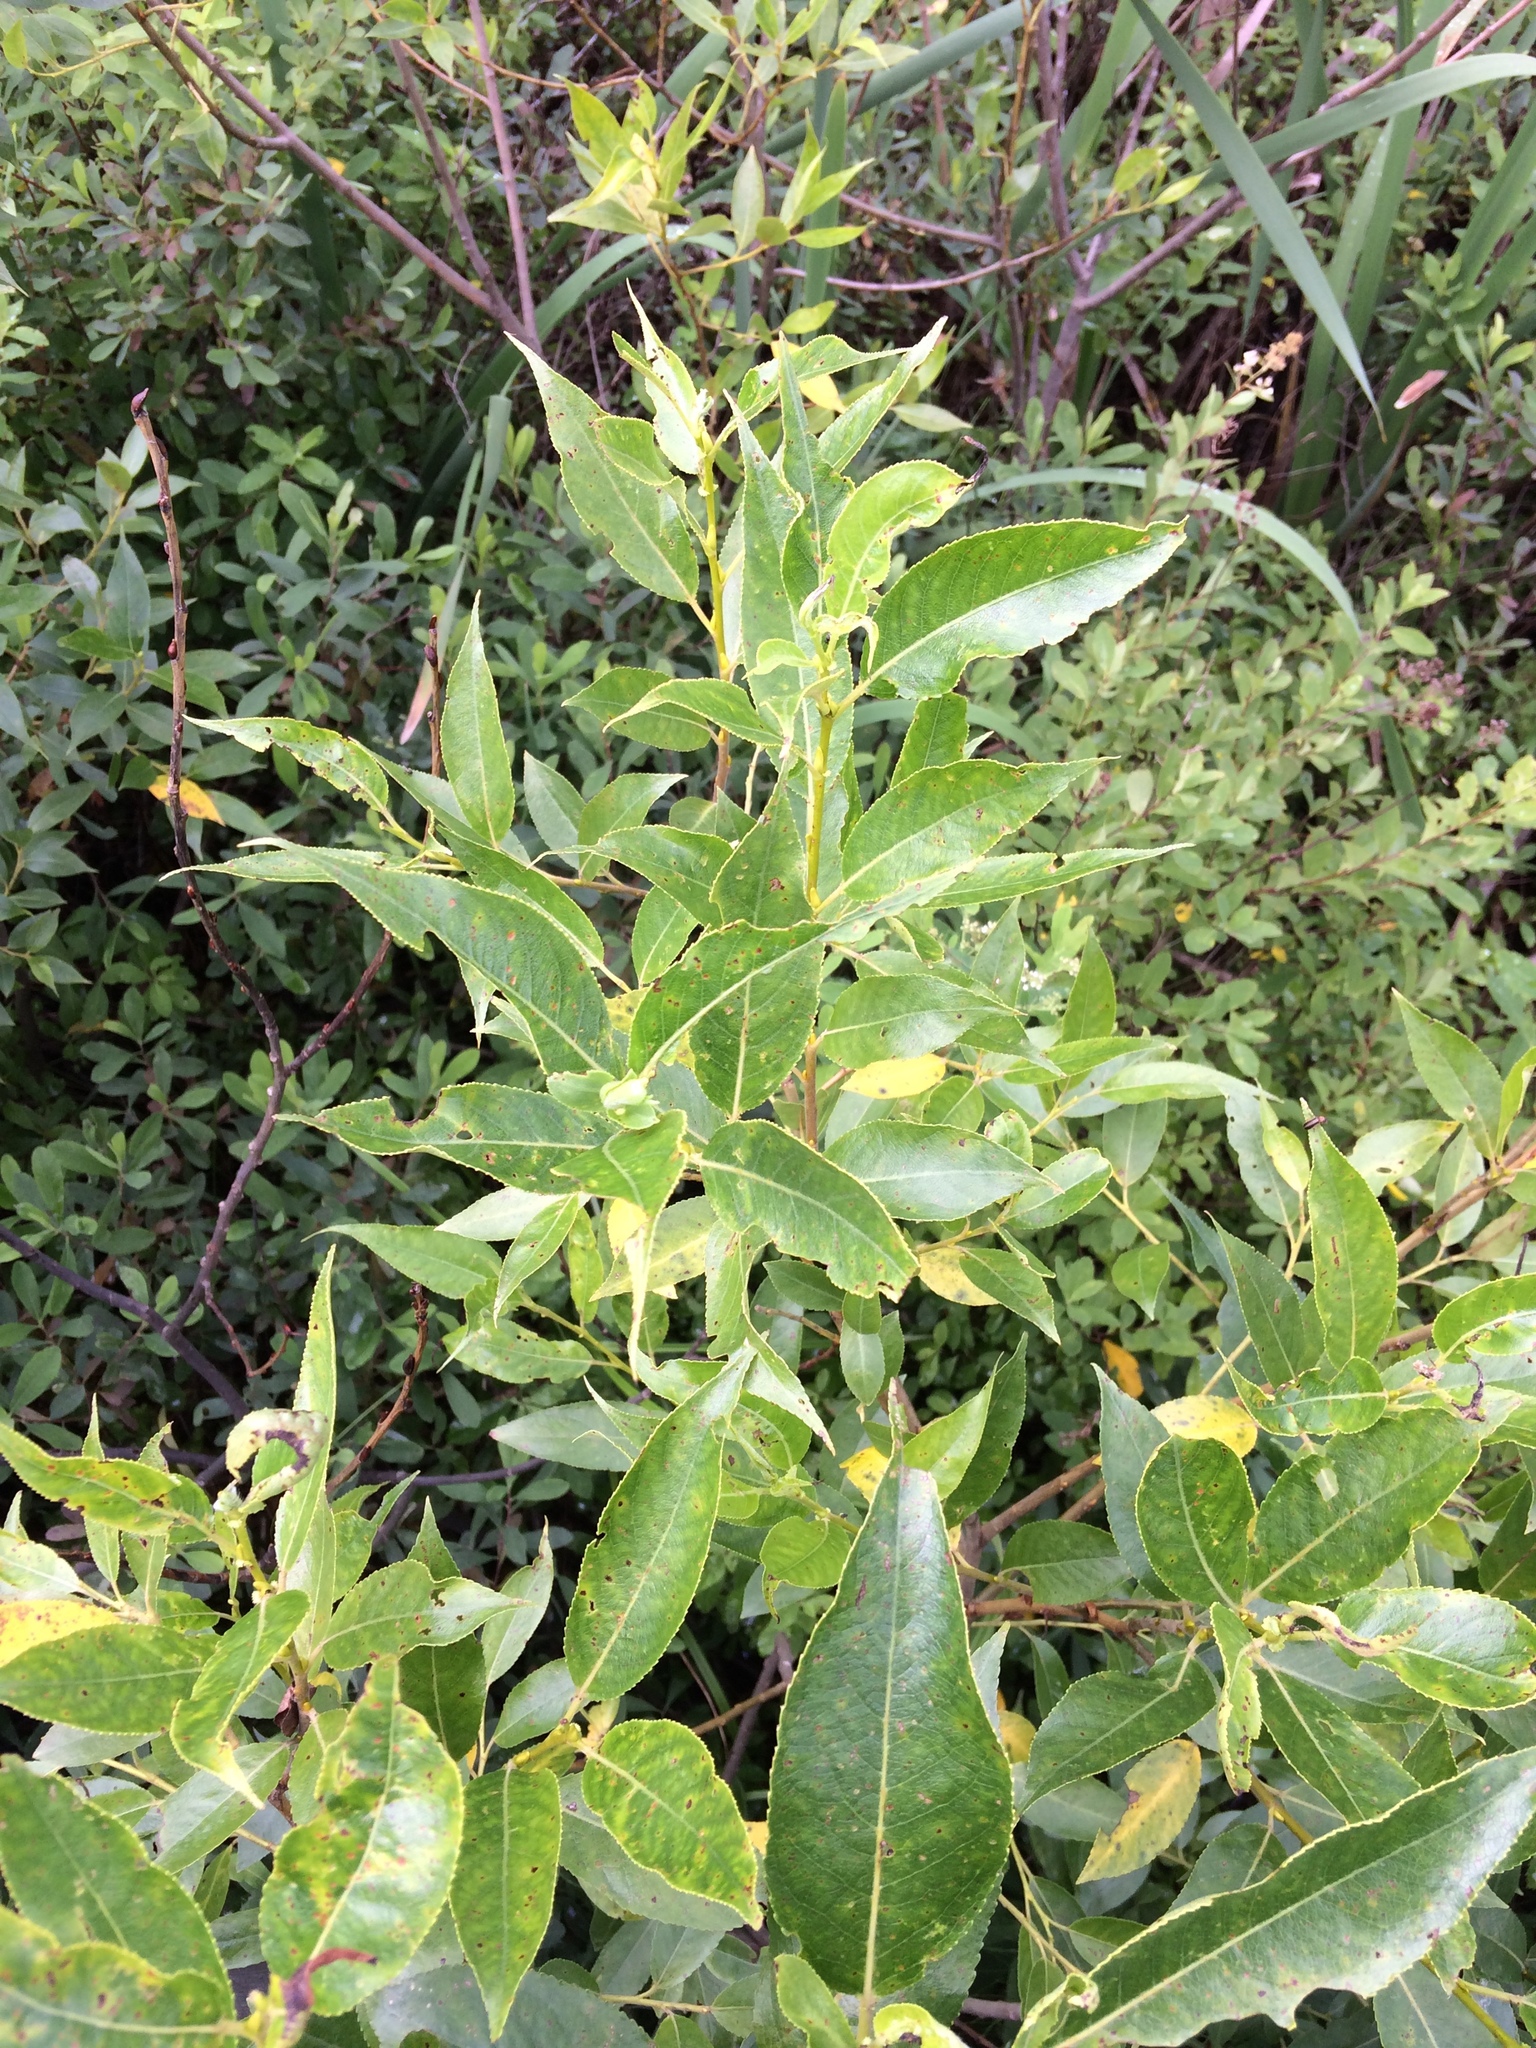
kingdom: Plantae
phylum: Tracheophyta
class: Magnoliopsida
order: Malpighiales
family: Salicaceae
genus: Salix
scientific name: Salix lucida
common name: Shining willow
